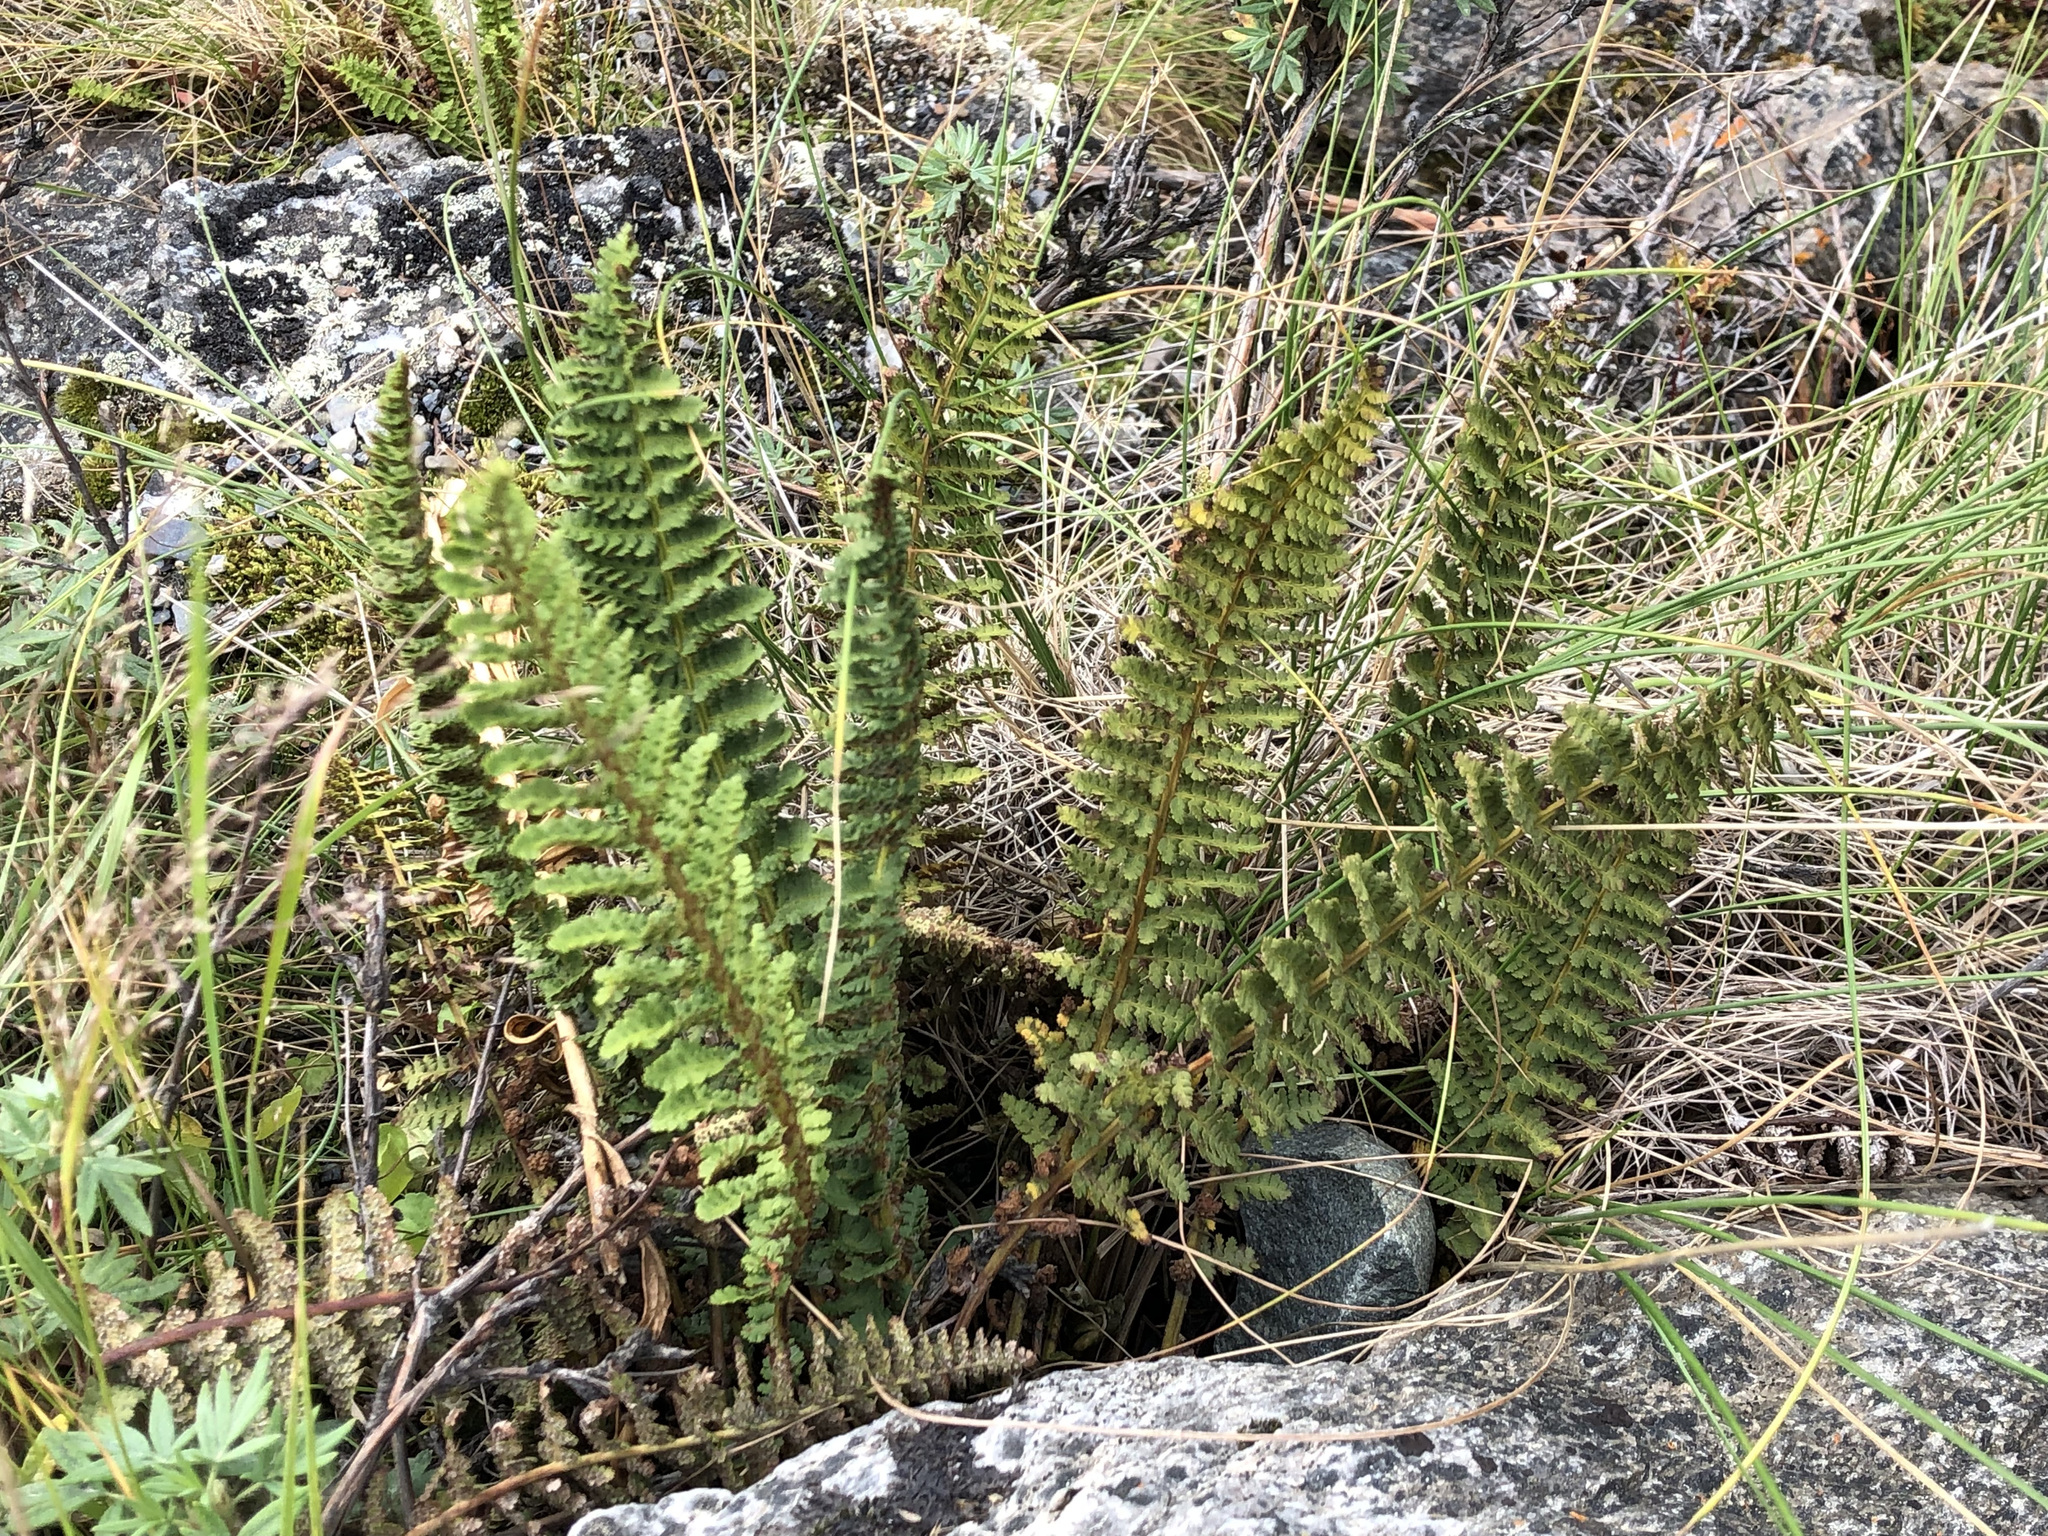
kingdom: Plantae
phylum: Tracheophyta
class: Polypodiopsida
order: Polypodiales
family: Dryopteridaceae
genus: Dryopteris
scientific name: Dryopteris fragrans
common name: Fragrant wood fern
